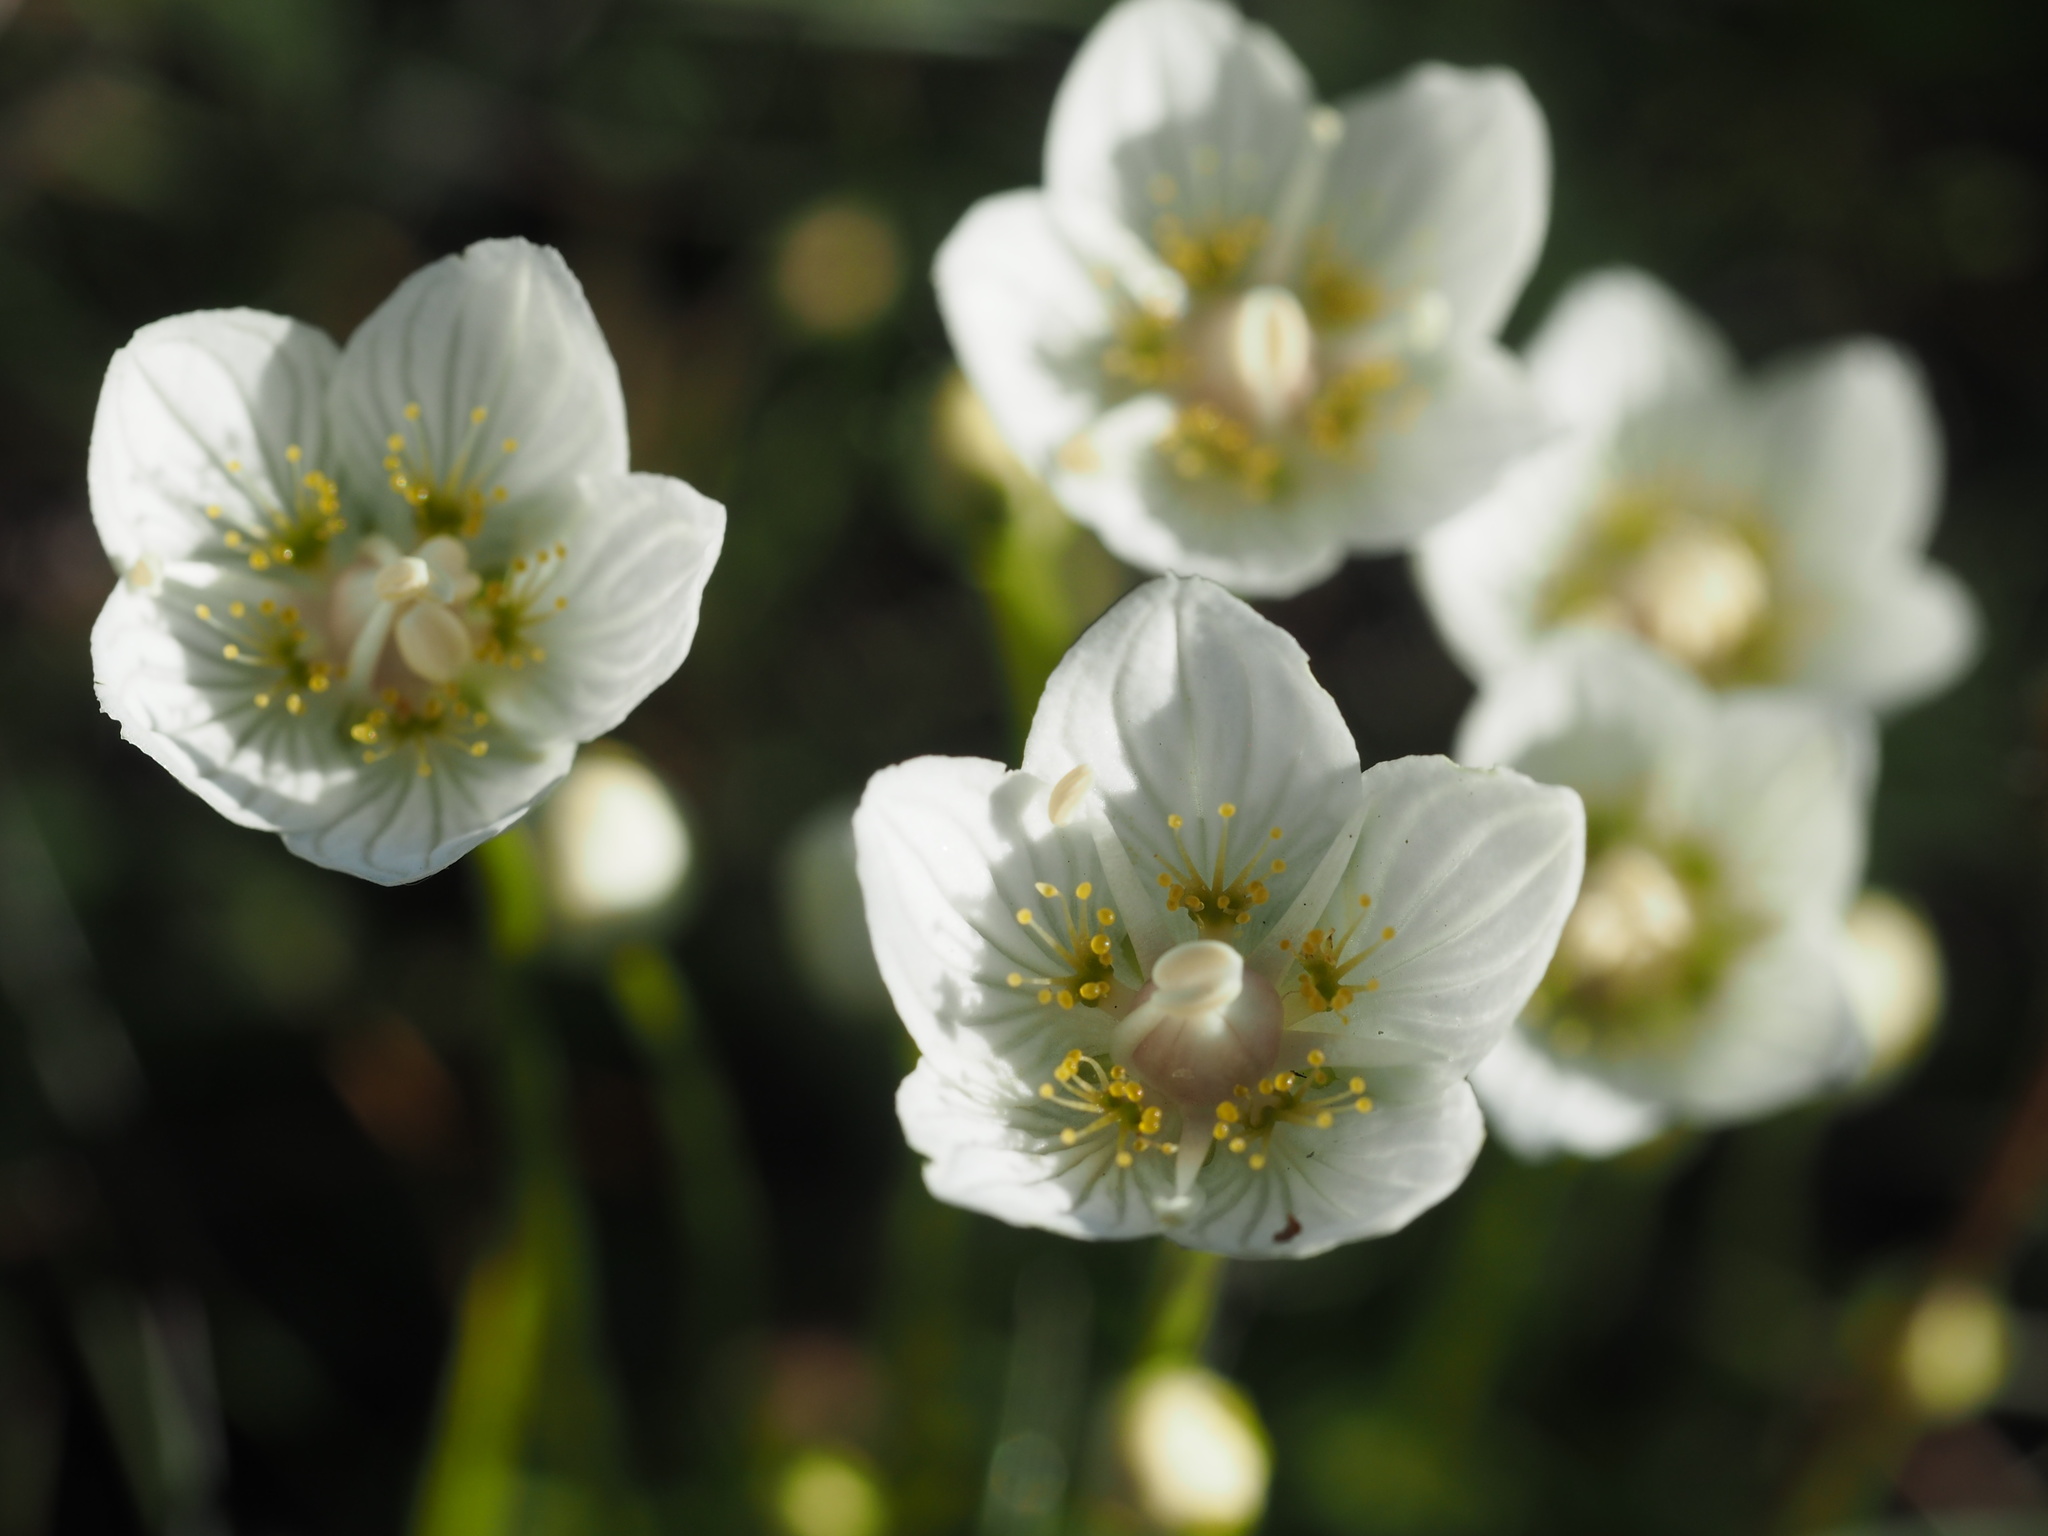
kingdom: Plantae
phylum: Tracheophyta
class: Magnoliopsida
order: Celastrales
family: Parnassiaceae
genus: Parnassia
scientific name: Parnassia palustris
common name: Grass-of-parnassus
